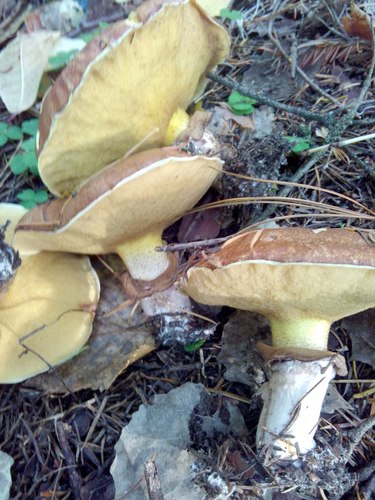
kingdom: Fungi
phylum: Basidiomycota
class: Agaricomycetes
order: Boletales
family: Suillaceae
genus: Suillus
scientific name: Suillus luteus
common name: Slippery jack
